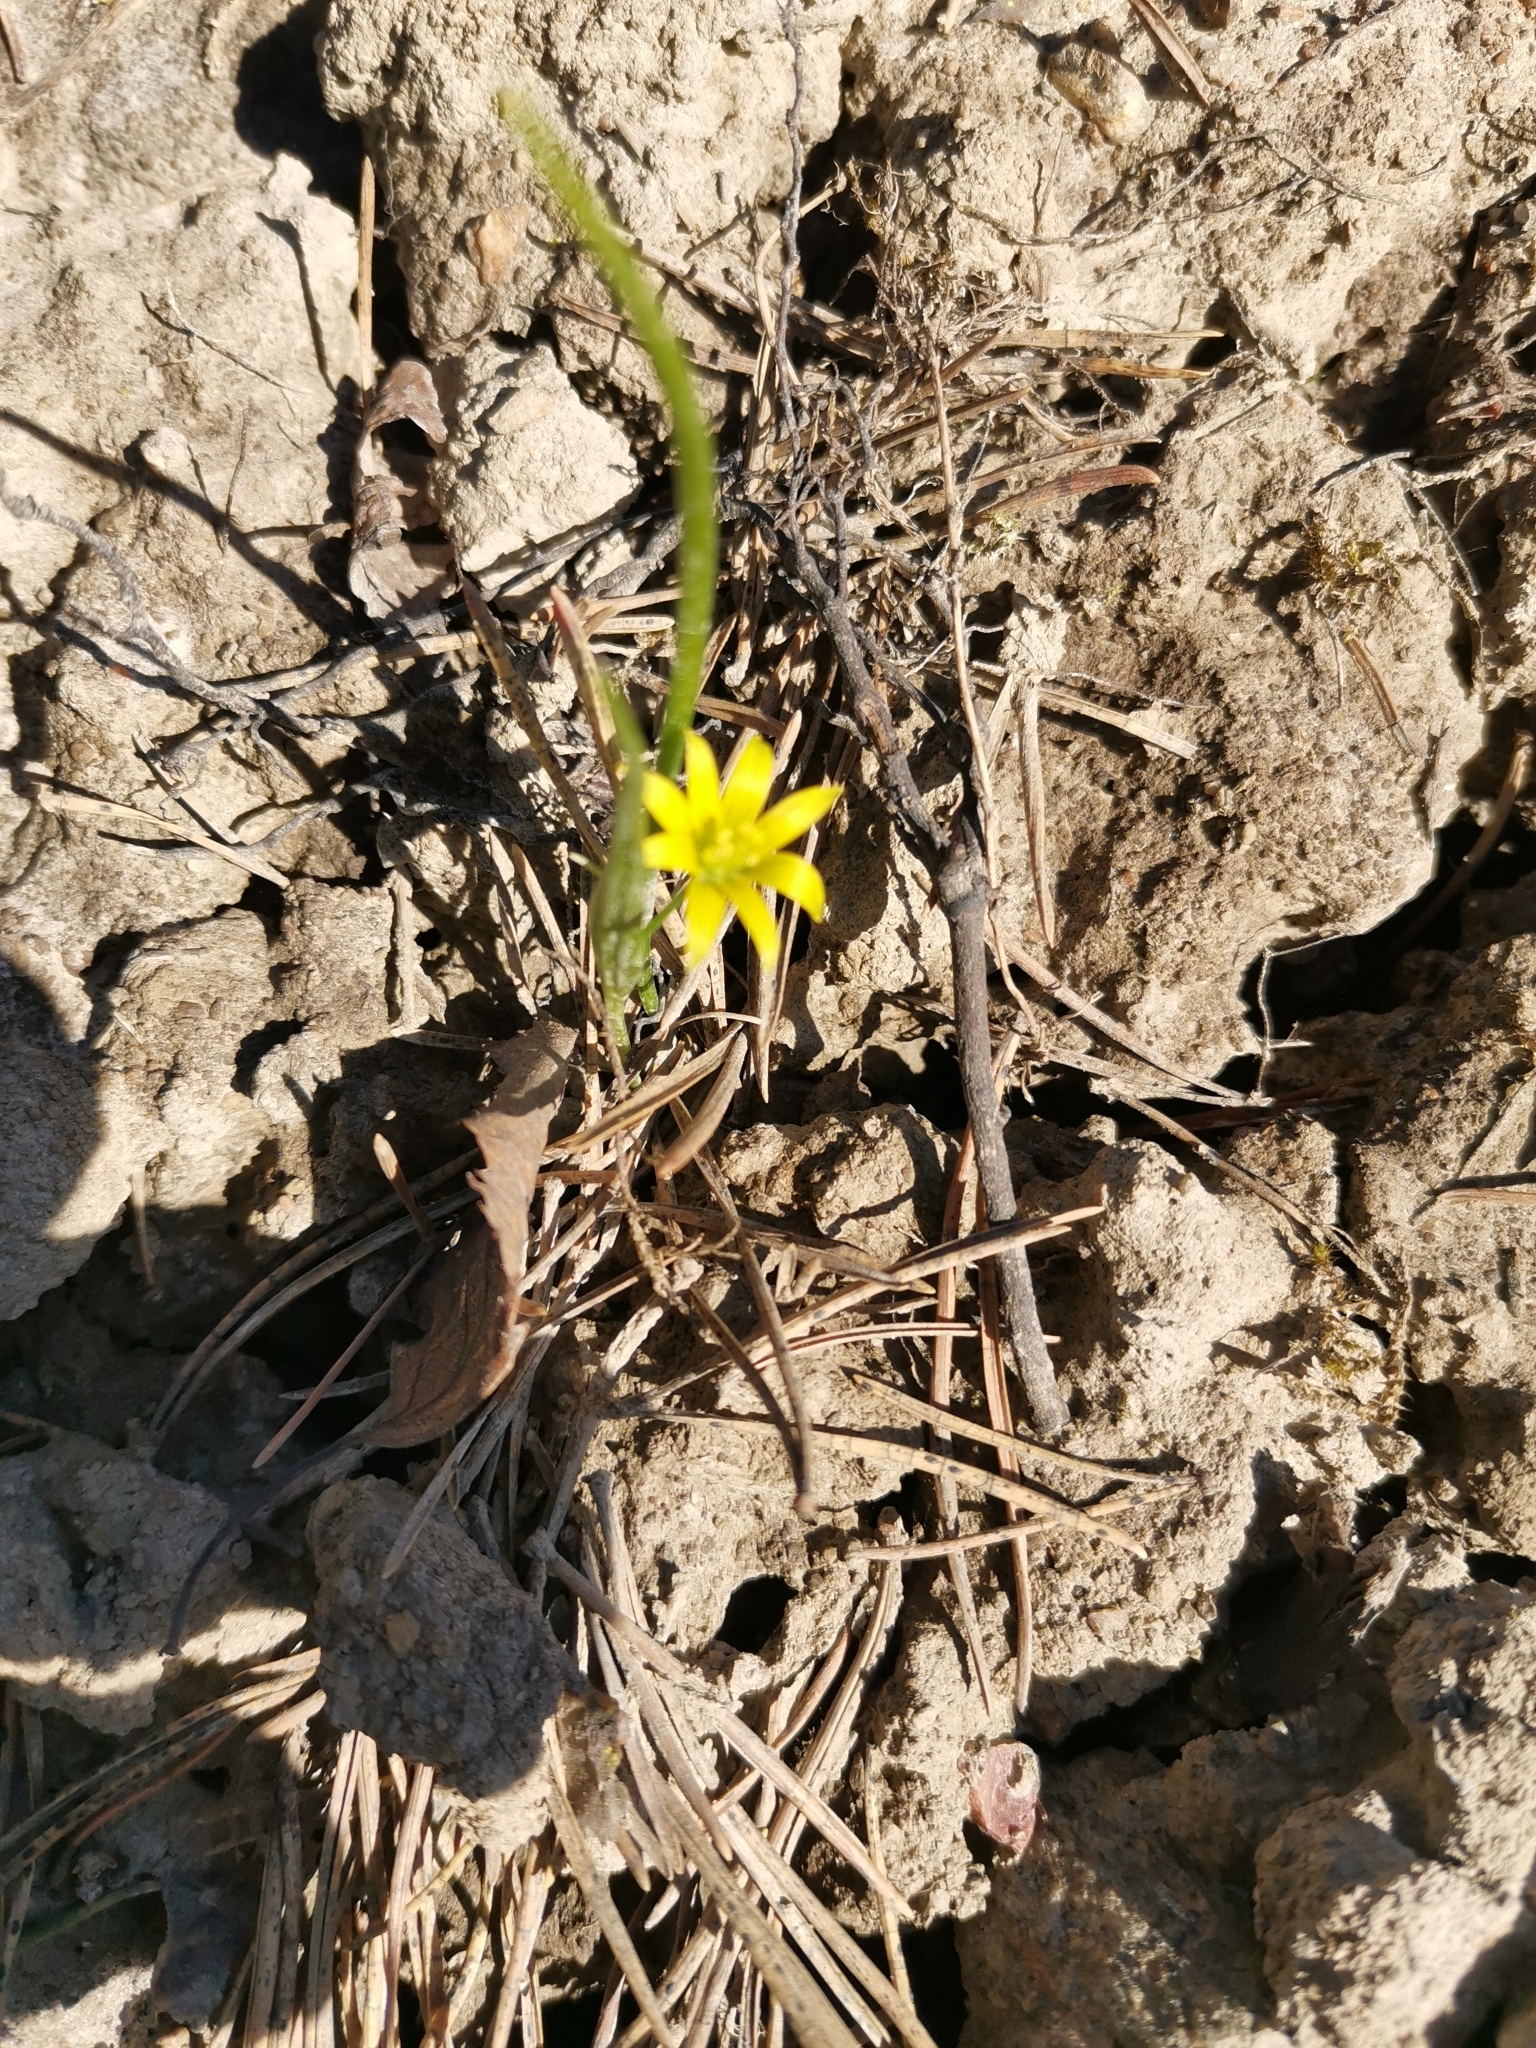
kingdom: Plantae
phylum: Tracheophyta
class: Liliopsida
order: Liliales
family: Liliaceae
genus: Gagea
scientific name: Gagea minima
